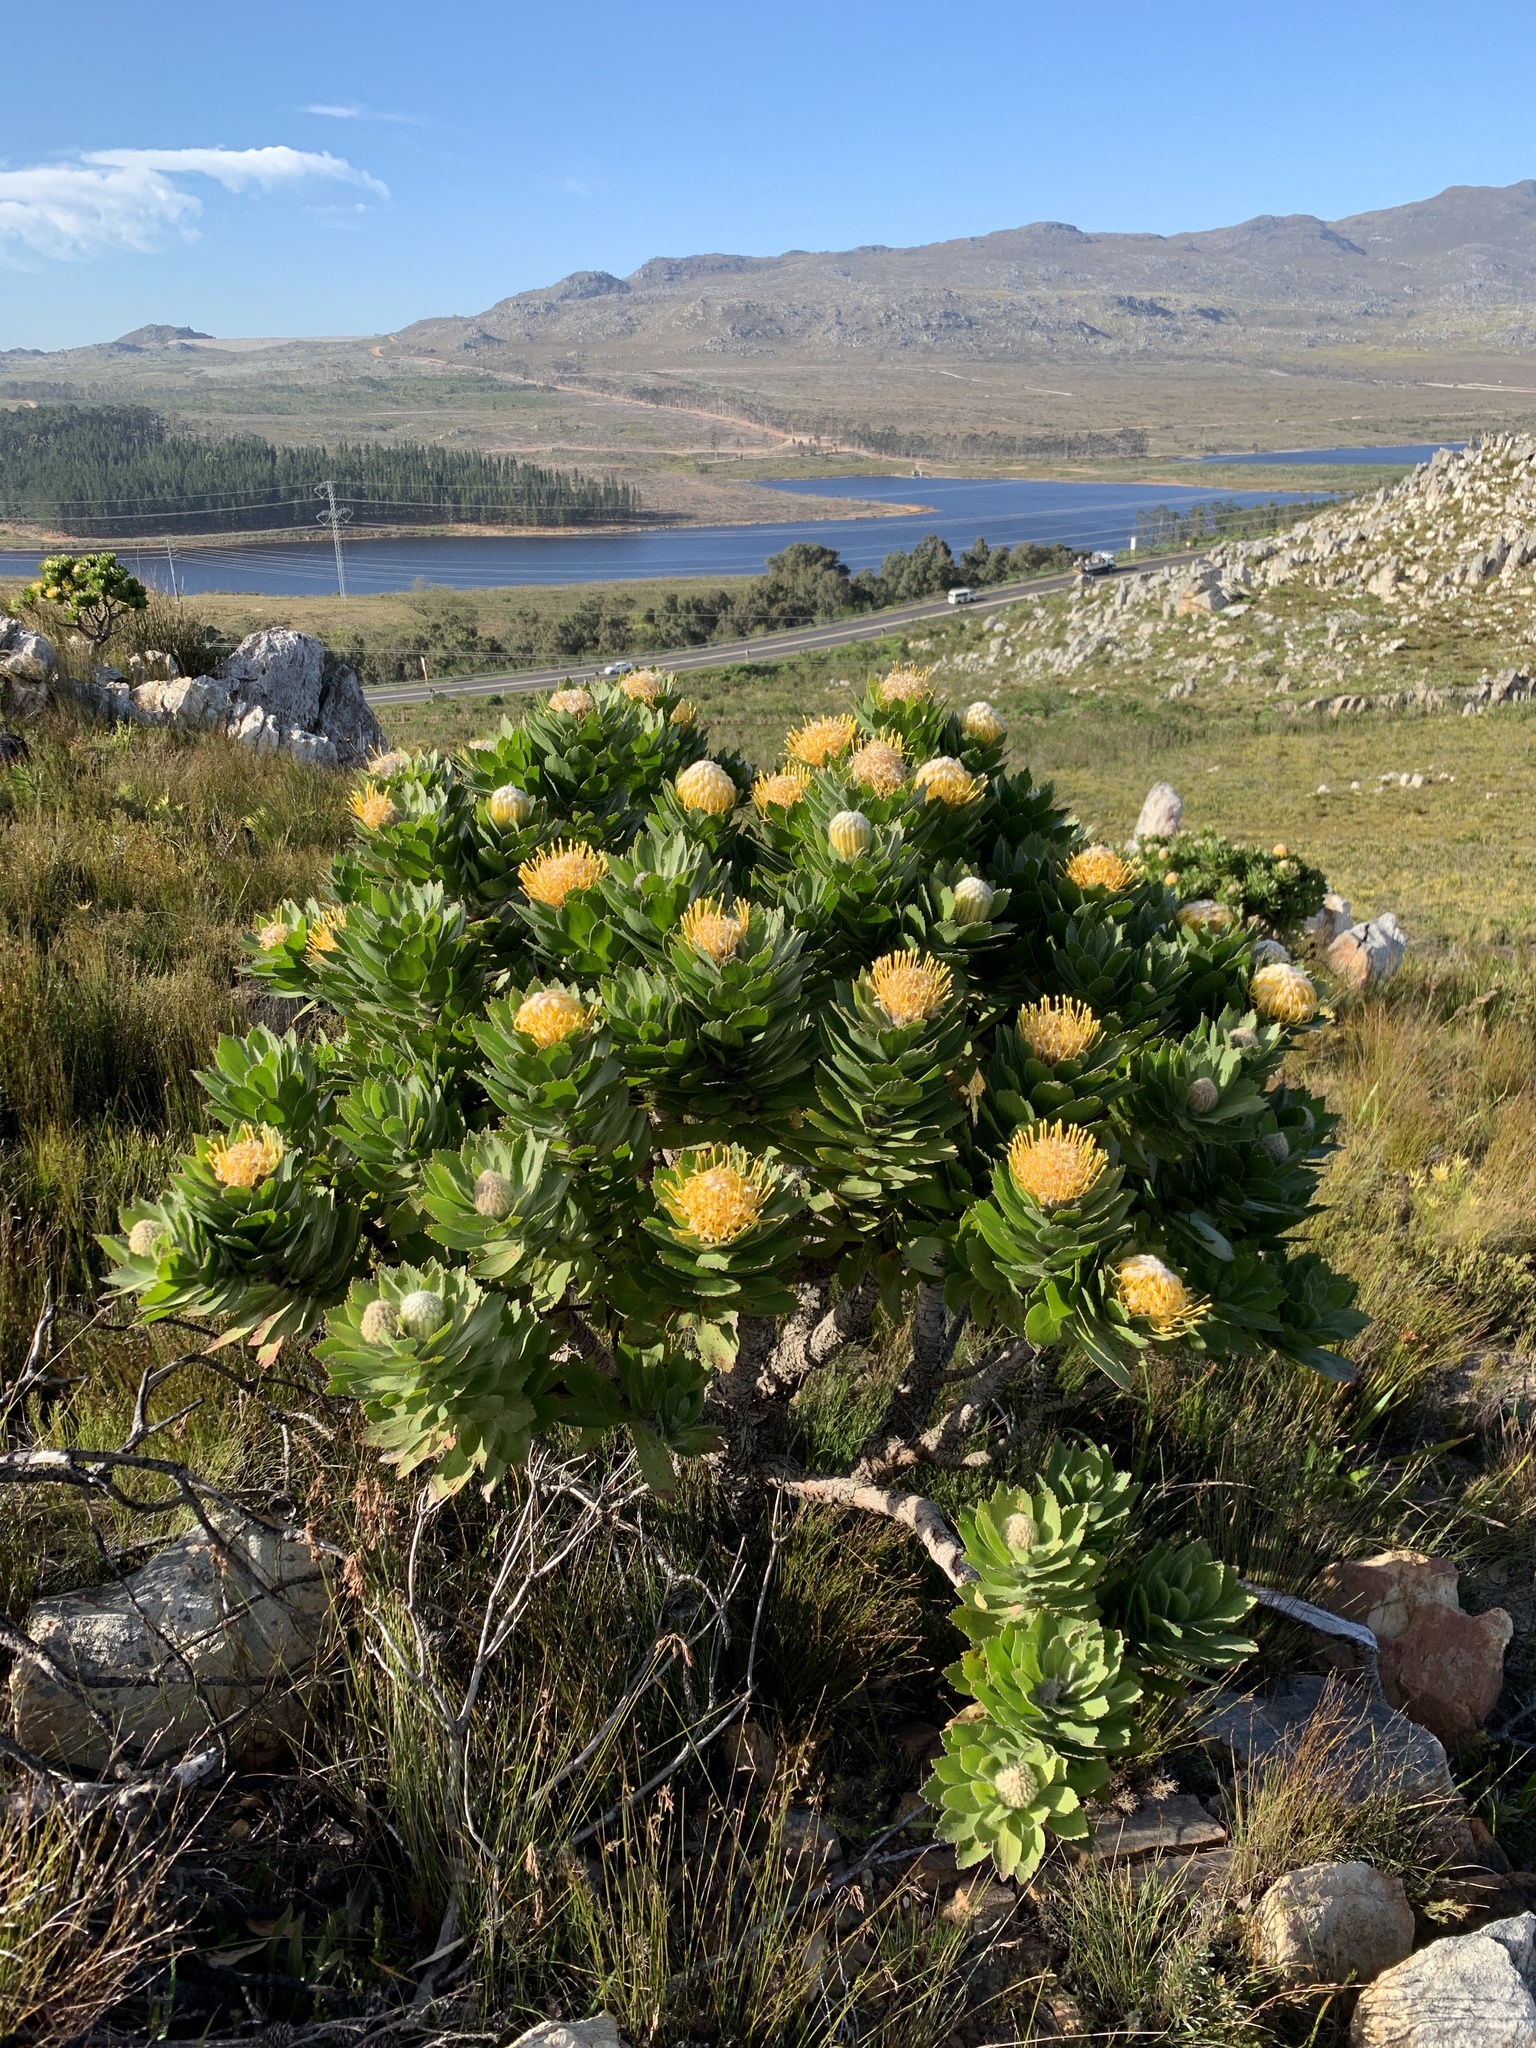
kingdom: Plantae
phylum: Tracheophyta
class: Magnoliopsida
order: Proteales
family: Proteaceae
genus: Leucospermum
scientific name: Leucospermum conocarpodendron
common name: Tree pincushion
